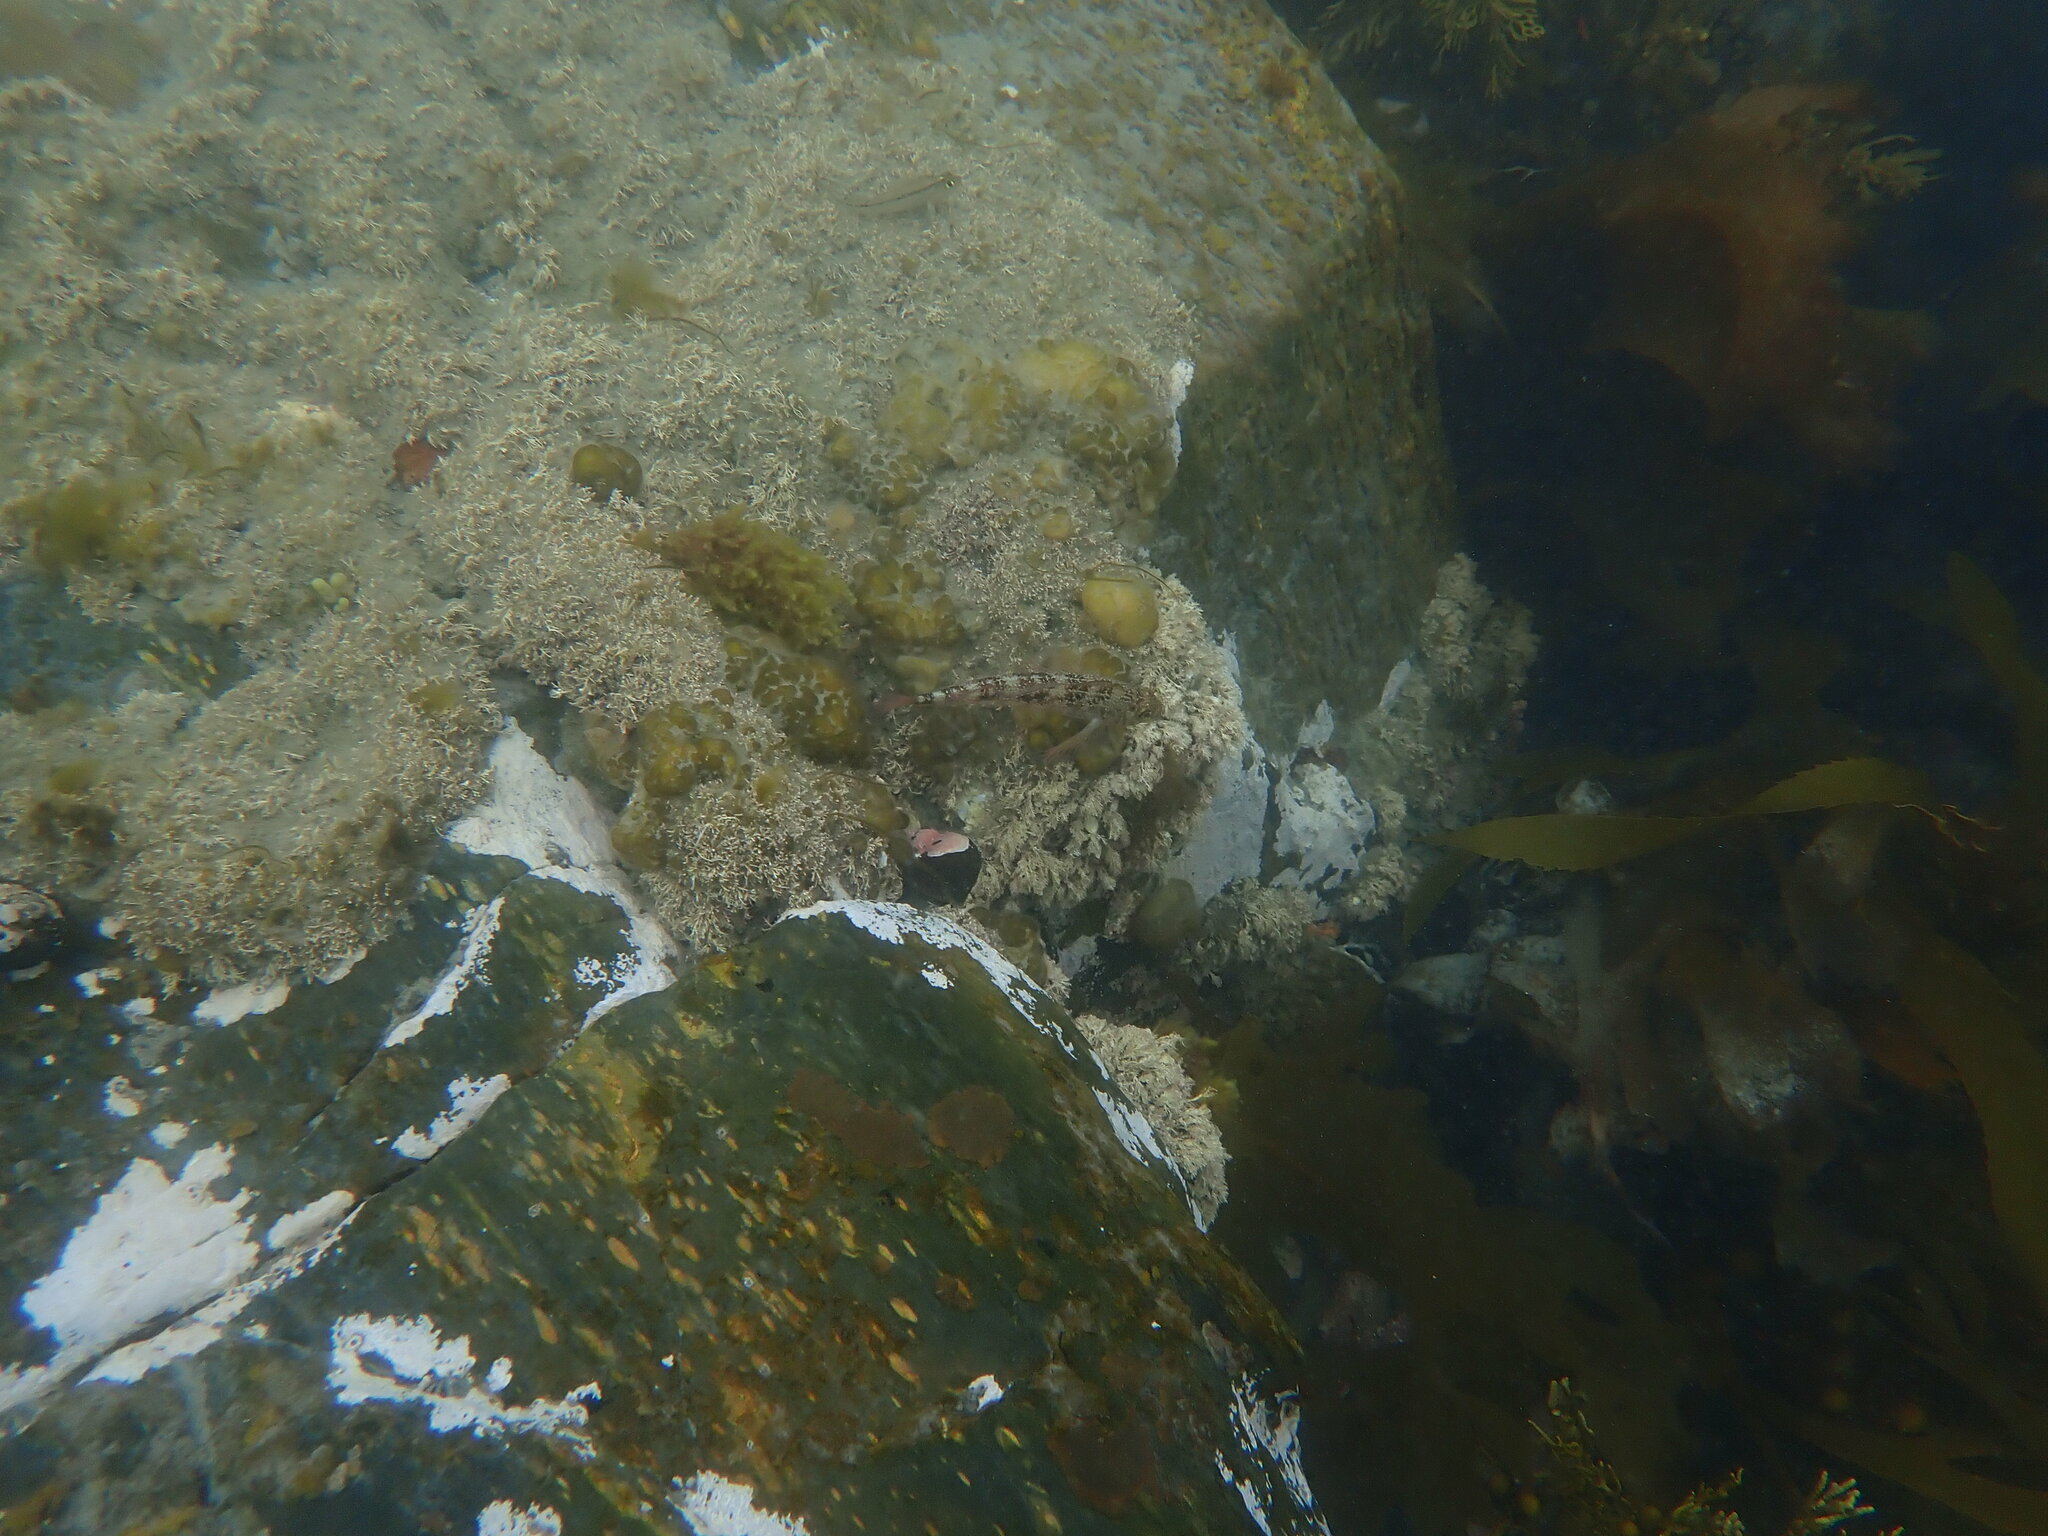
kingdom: Animalia
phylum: Chordata
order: Perciformes
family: Tripterygiidae
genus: Forsterygion
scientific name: Forsterygion varium
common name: Variable triplefin
